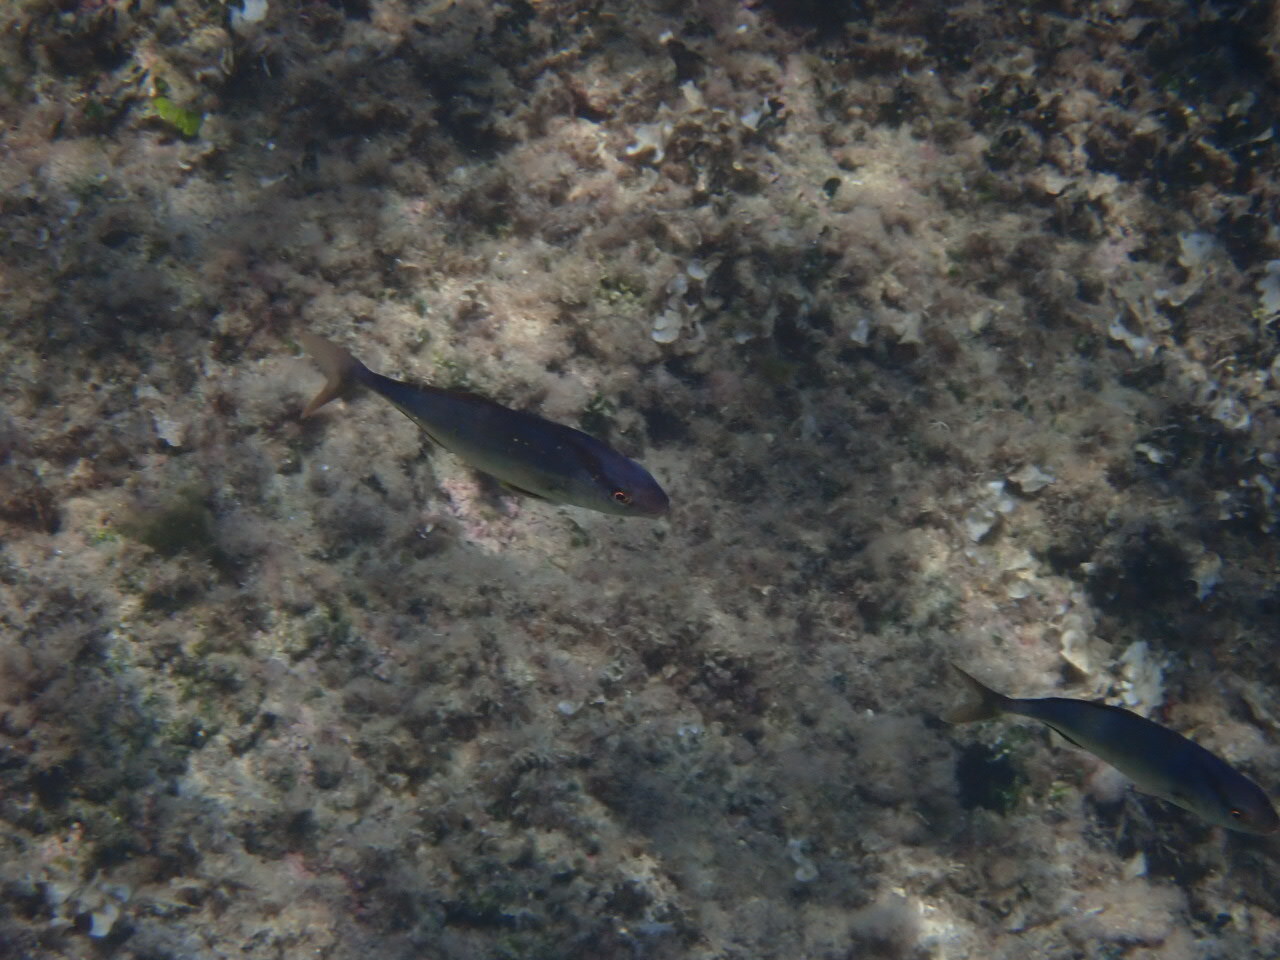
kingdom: Animalia
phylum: Chordata
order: Perciformes
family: Carangidae
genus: Seriola
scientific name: Seriola dumerili
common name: Greater amberjack
